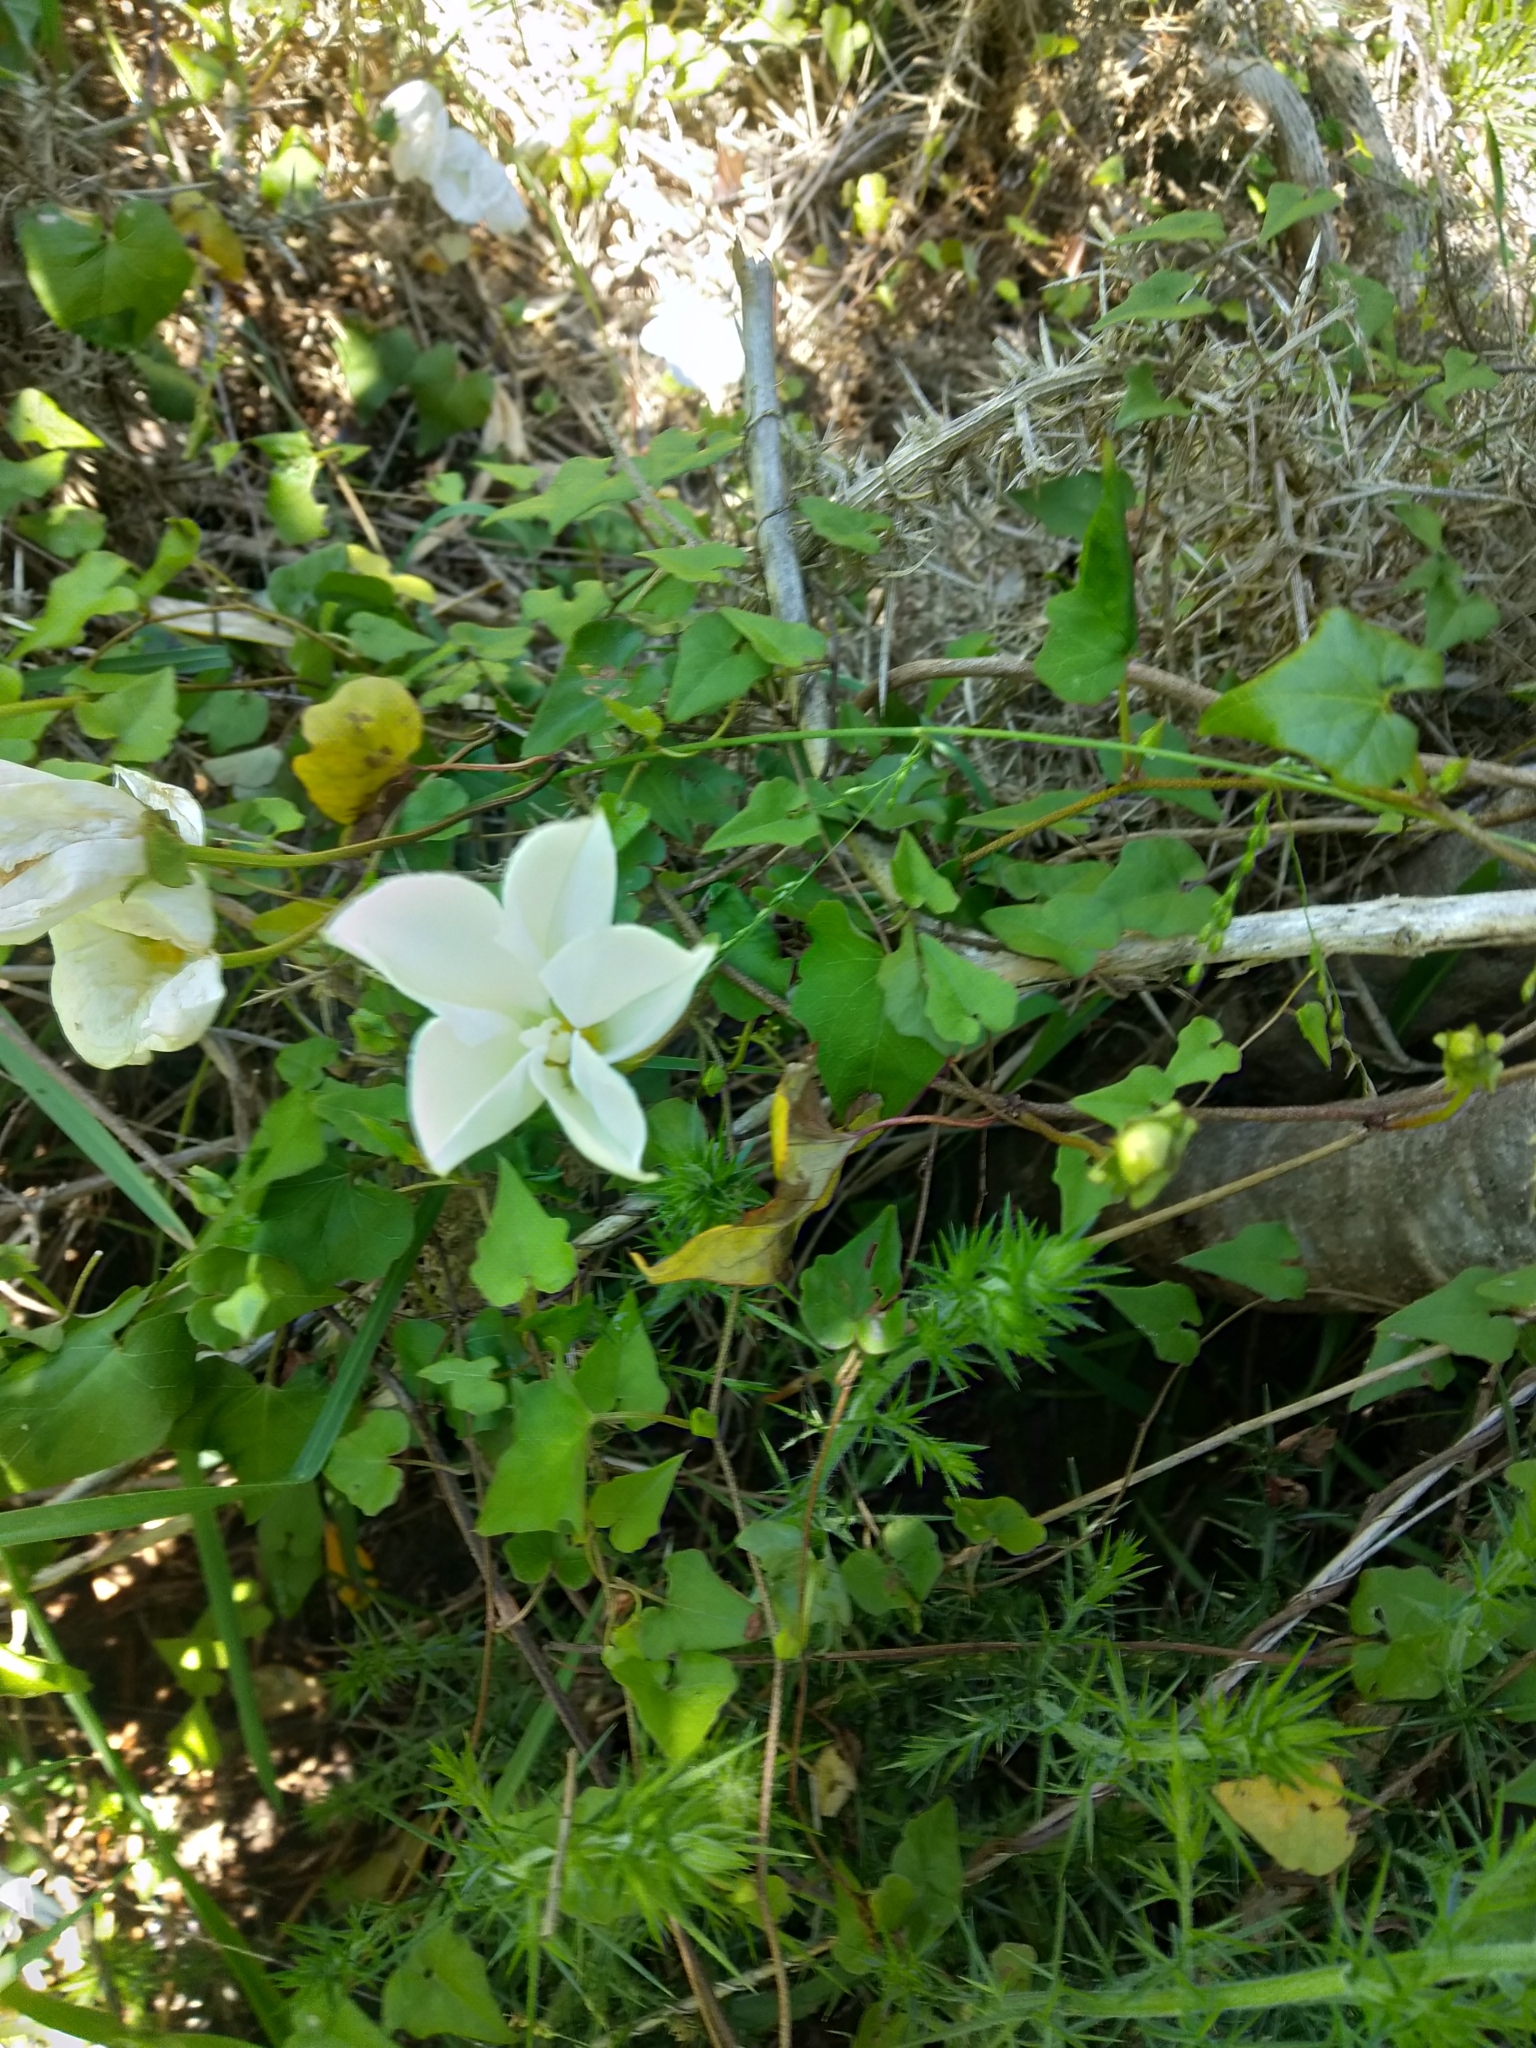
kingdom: Plantae
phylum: Tracheophyta
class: Magnoliopsida
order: Solanales
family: Convolvulaceae
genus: Calystegia
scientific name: Calystegia tuguriorum
